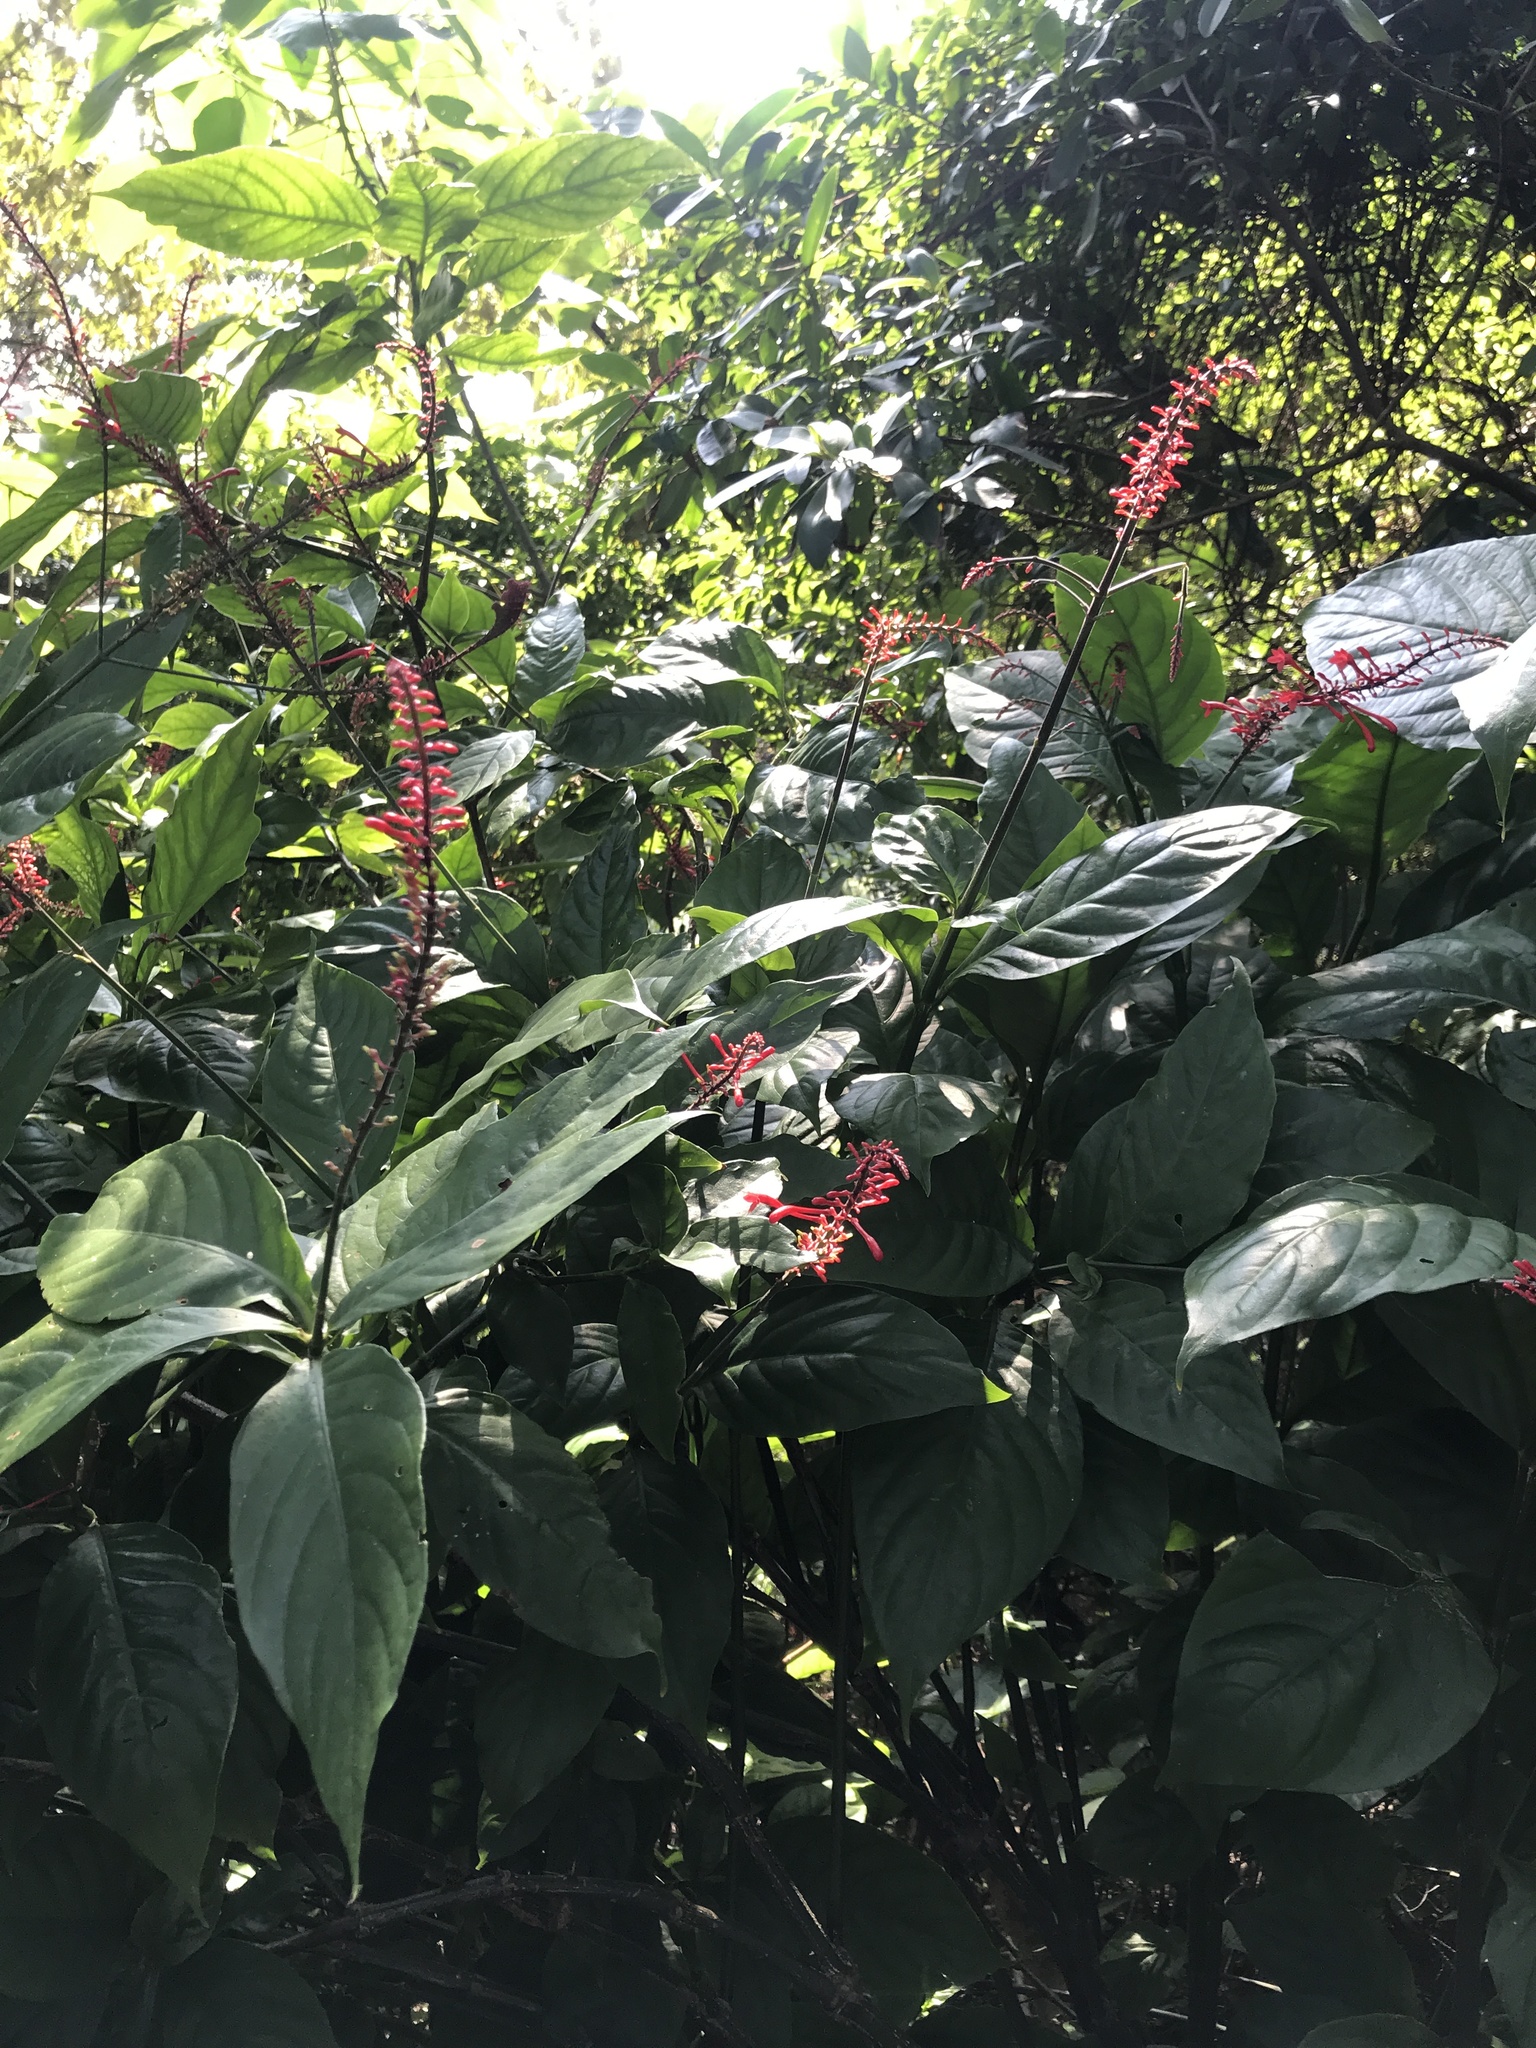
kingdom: Plantae
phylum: Tracheophyta
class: Magnoliopsida
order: Lamiales
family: Acanthaceae
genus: Odontonema
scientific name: Odontonema tubaeforme
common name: Firespike
